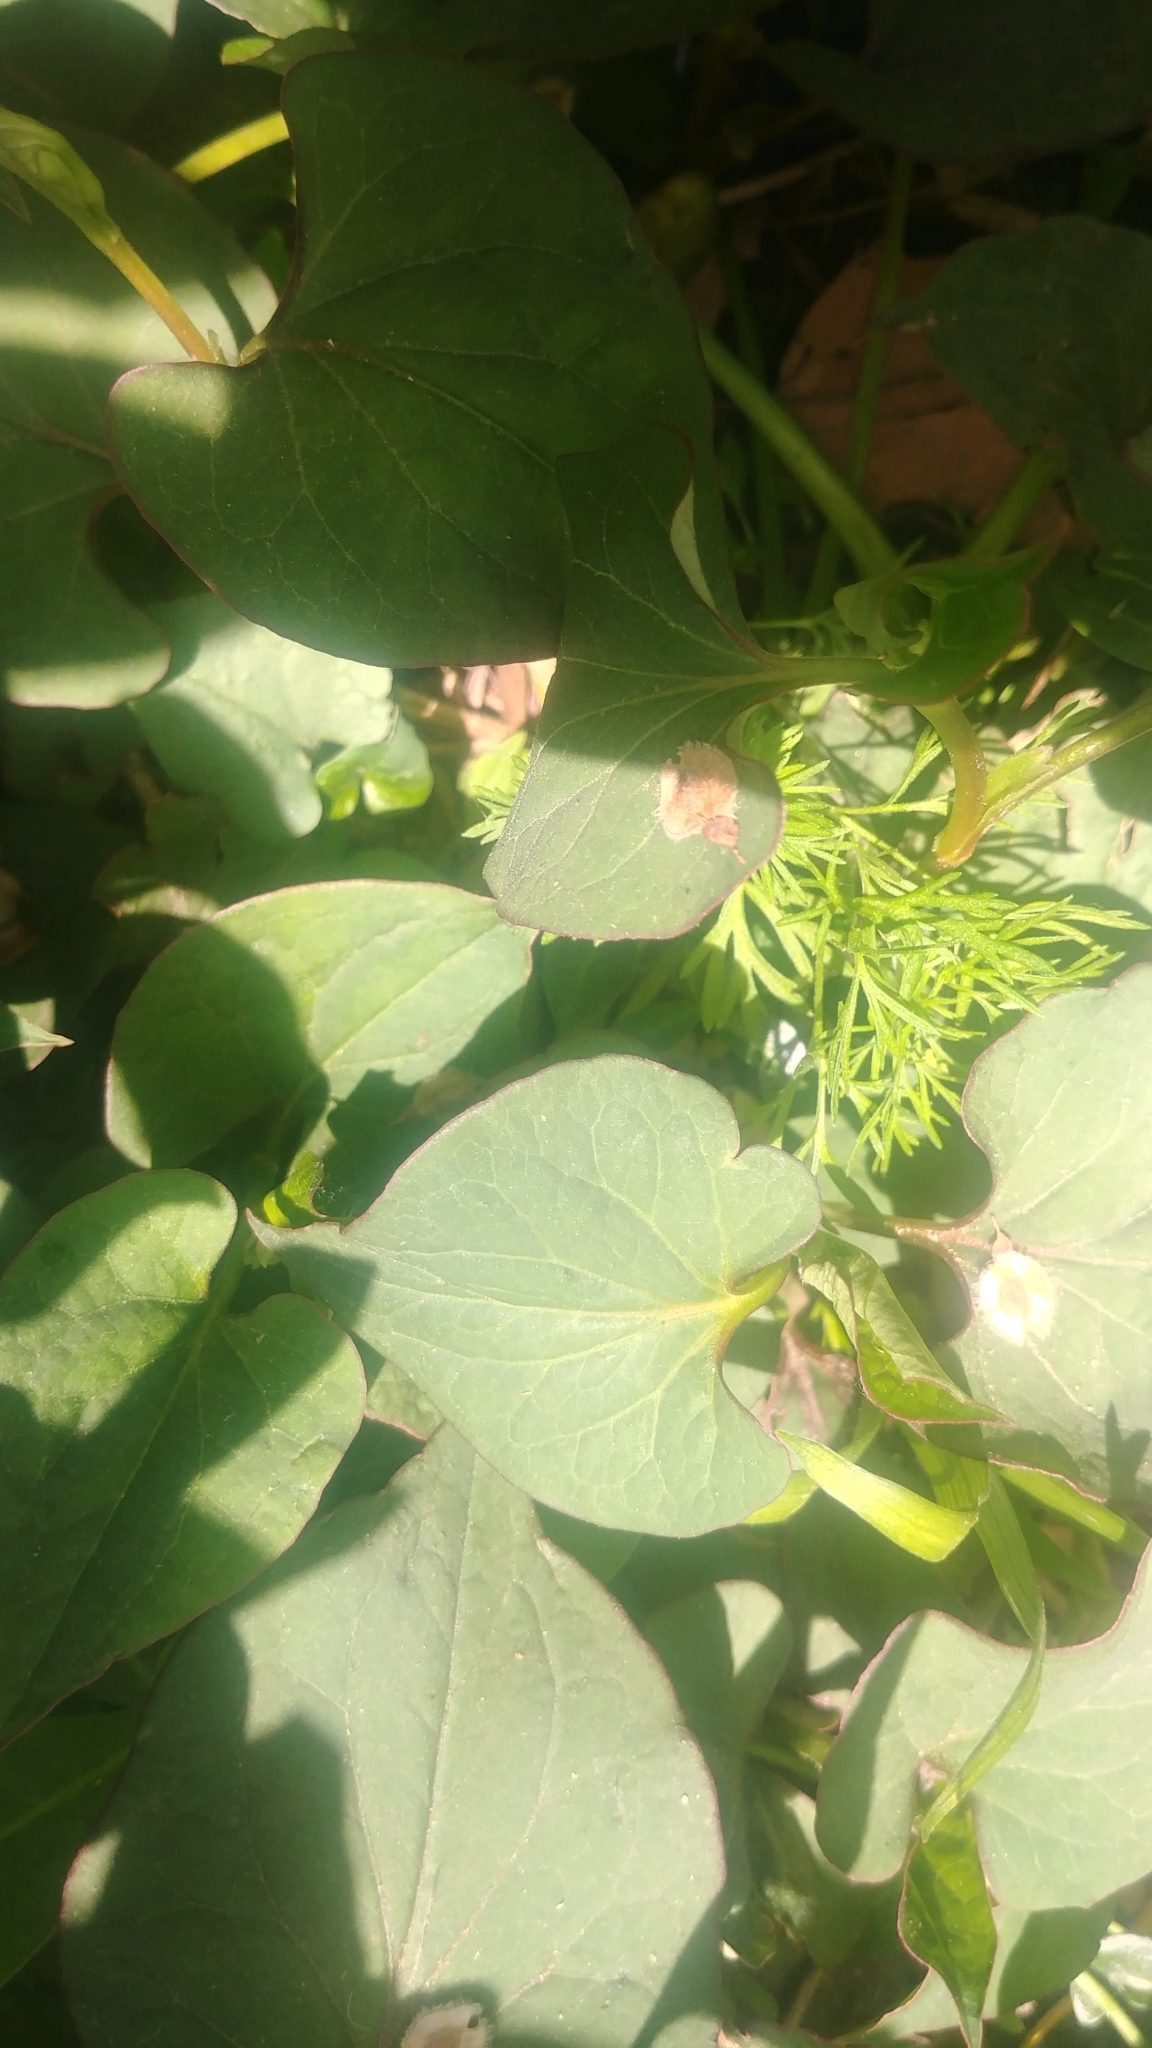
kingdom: Plantae
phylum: Tracheophyta
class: Magnoliopsida
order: Piperales
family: Saururaceae
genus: Houttuynia
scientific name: Houttuynia cordata
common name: Chameleon
